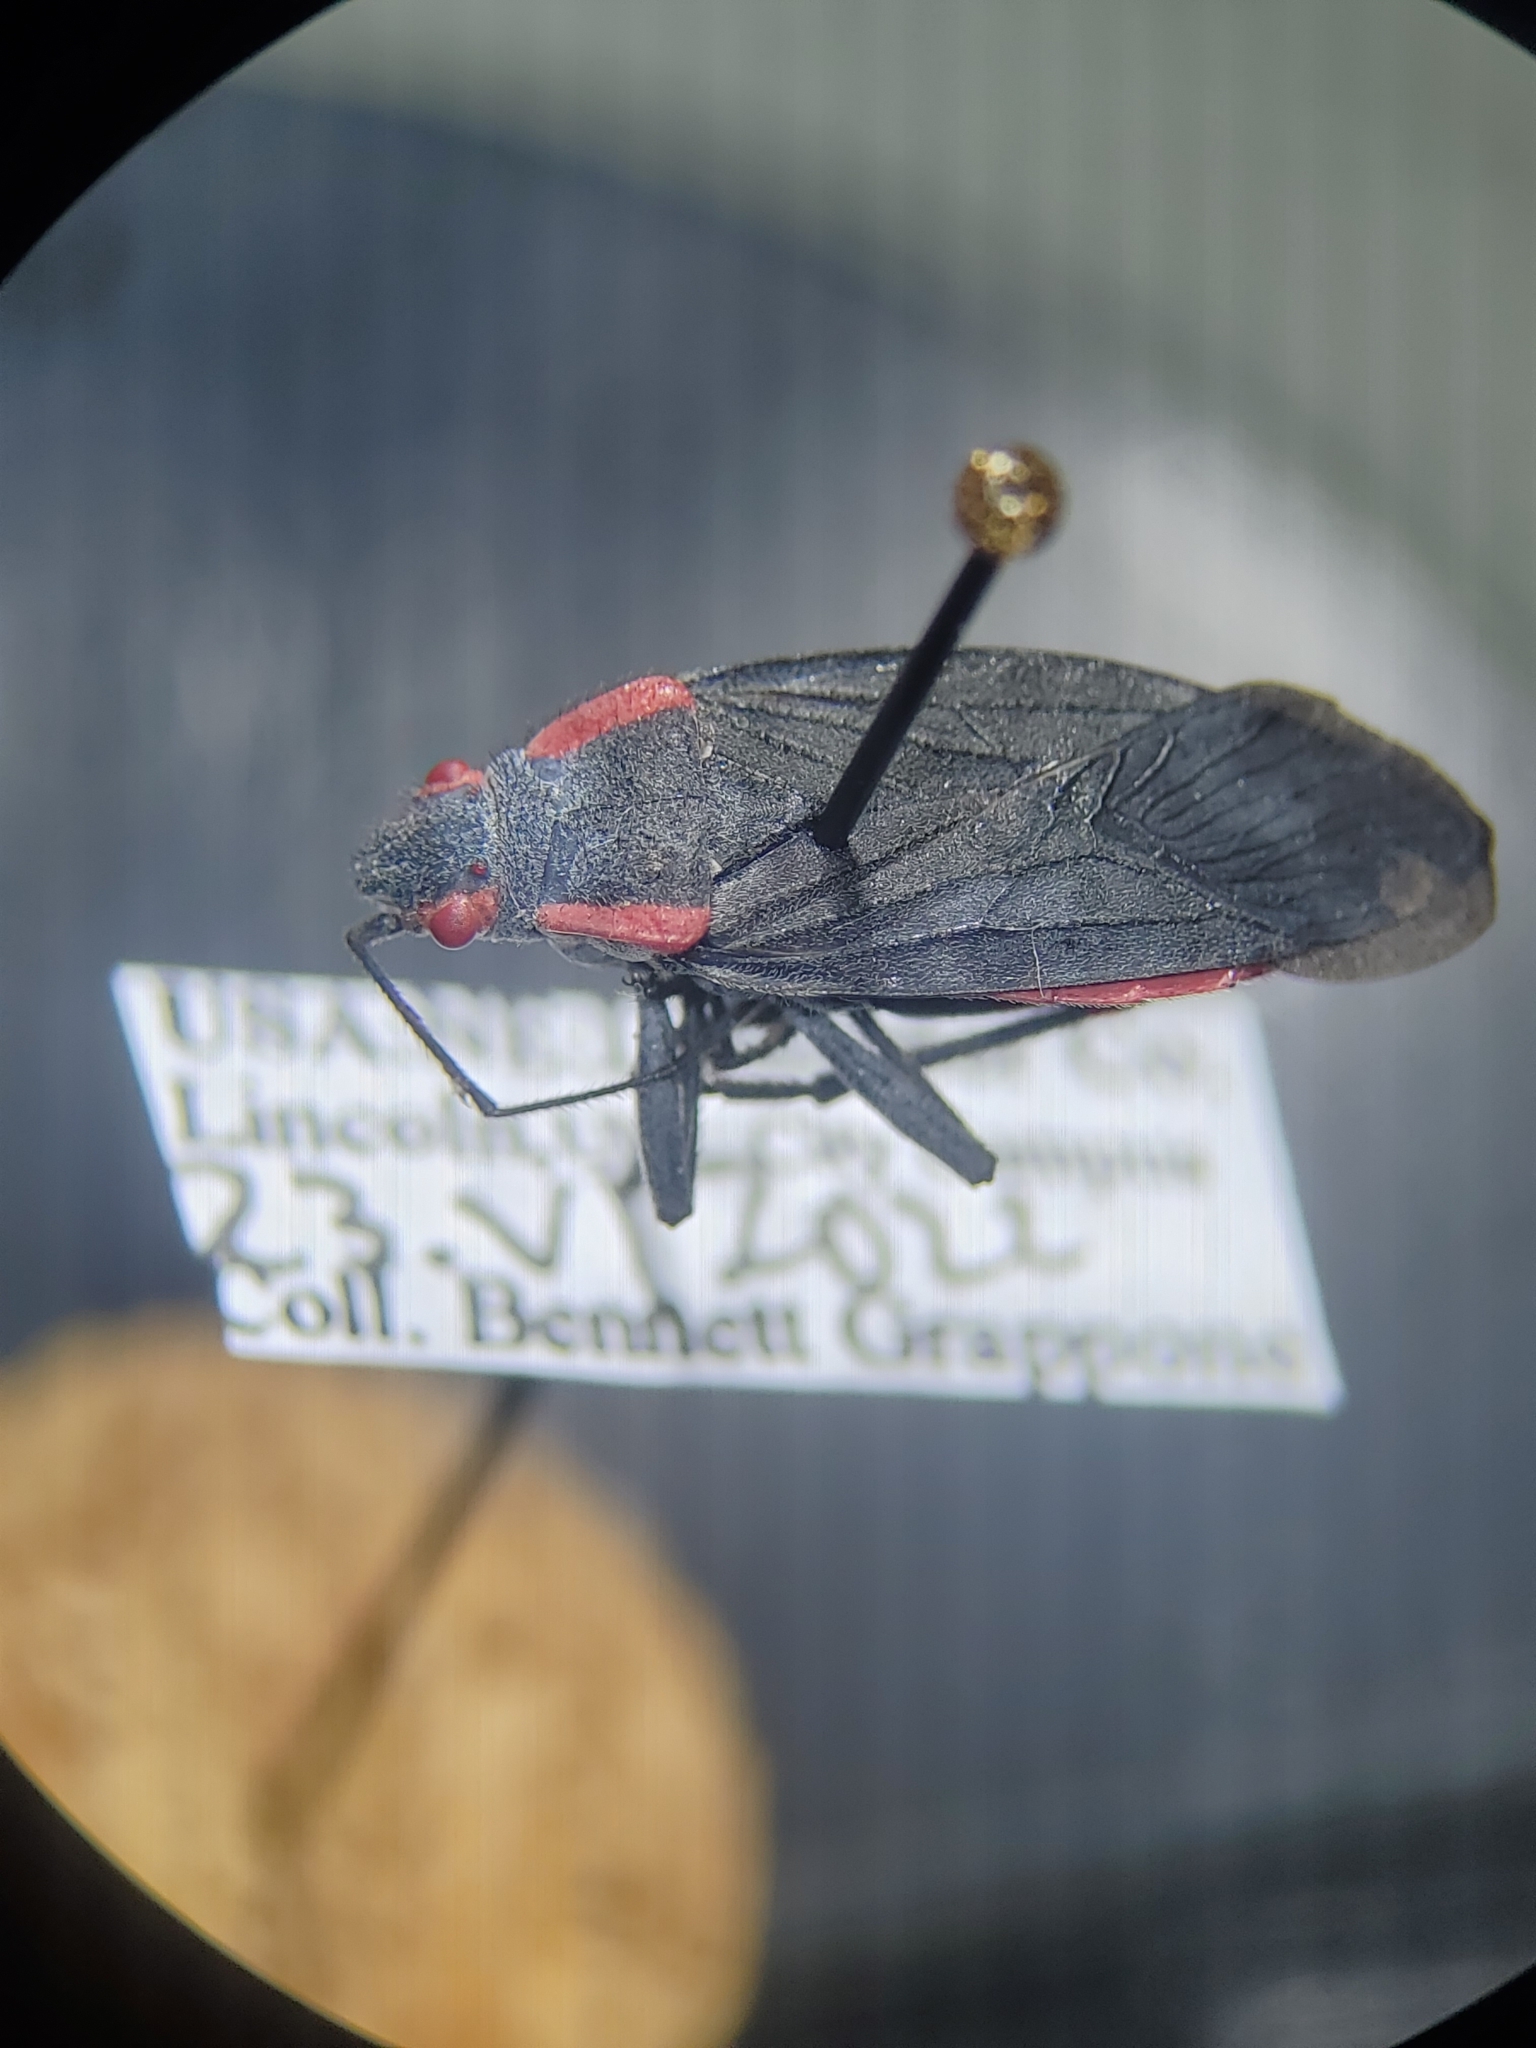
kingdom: Animalia
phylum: Arthropoda
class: Insecta
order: Hemiptera
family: Rhopalidae
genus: Jadera
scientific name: Jadera haematoloma
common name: Red-shouldered bug
